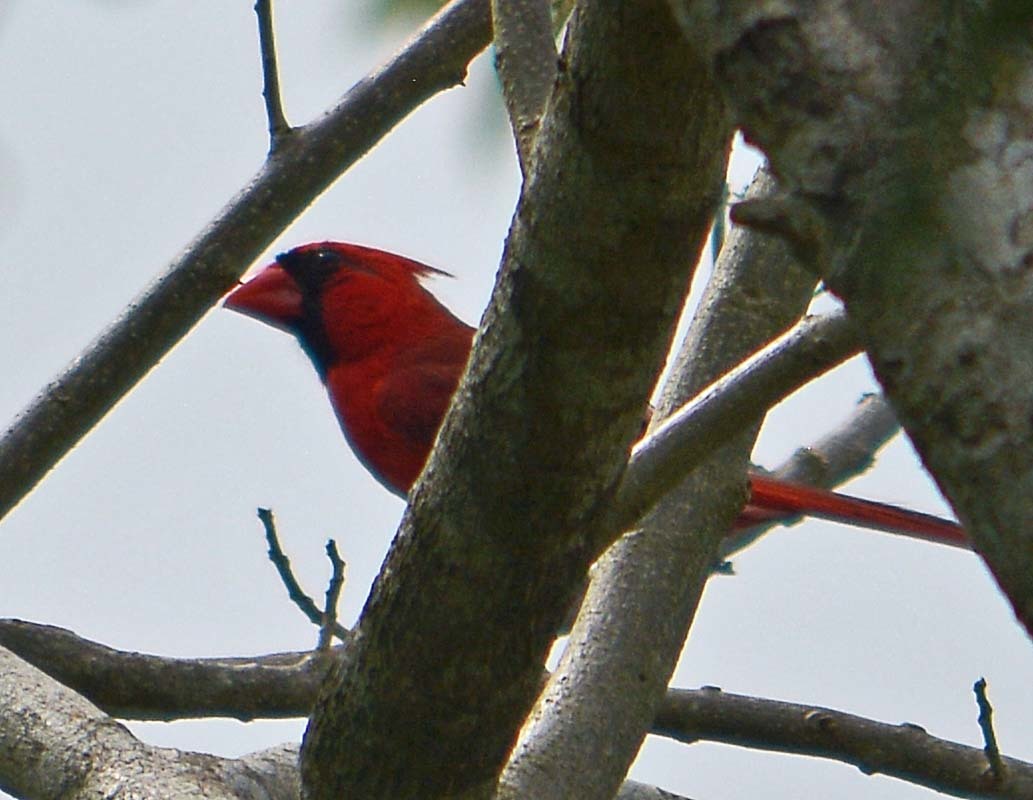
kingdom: Animalia
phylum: Chordata
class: Aves
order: Passeriformes
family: Cardinalidae
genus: Cardinalis
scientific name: Cardinalis cardinalis
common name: Northern cardinal
